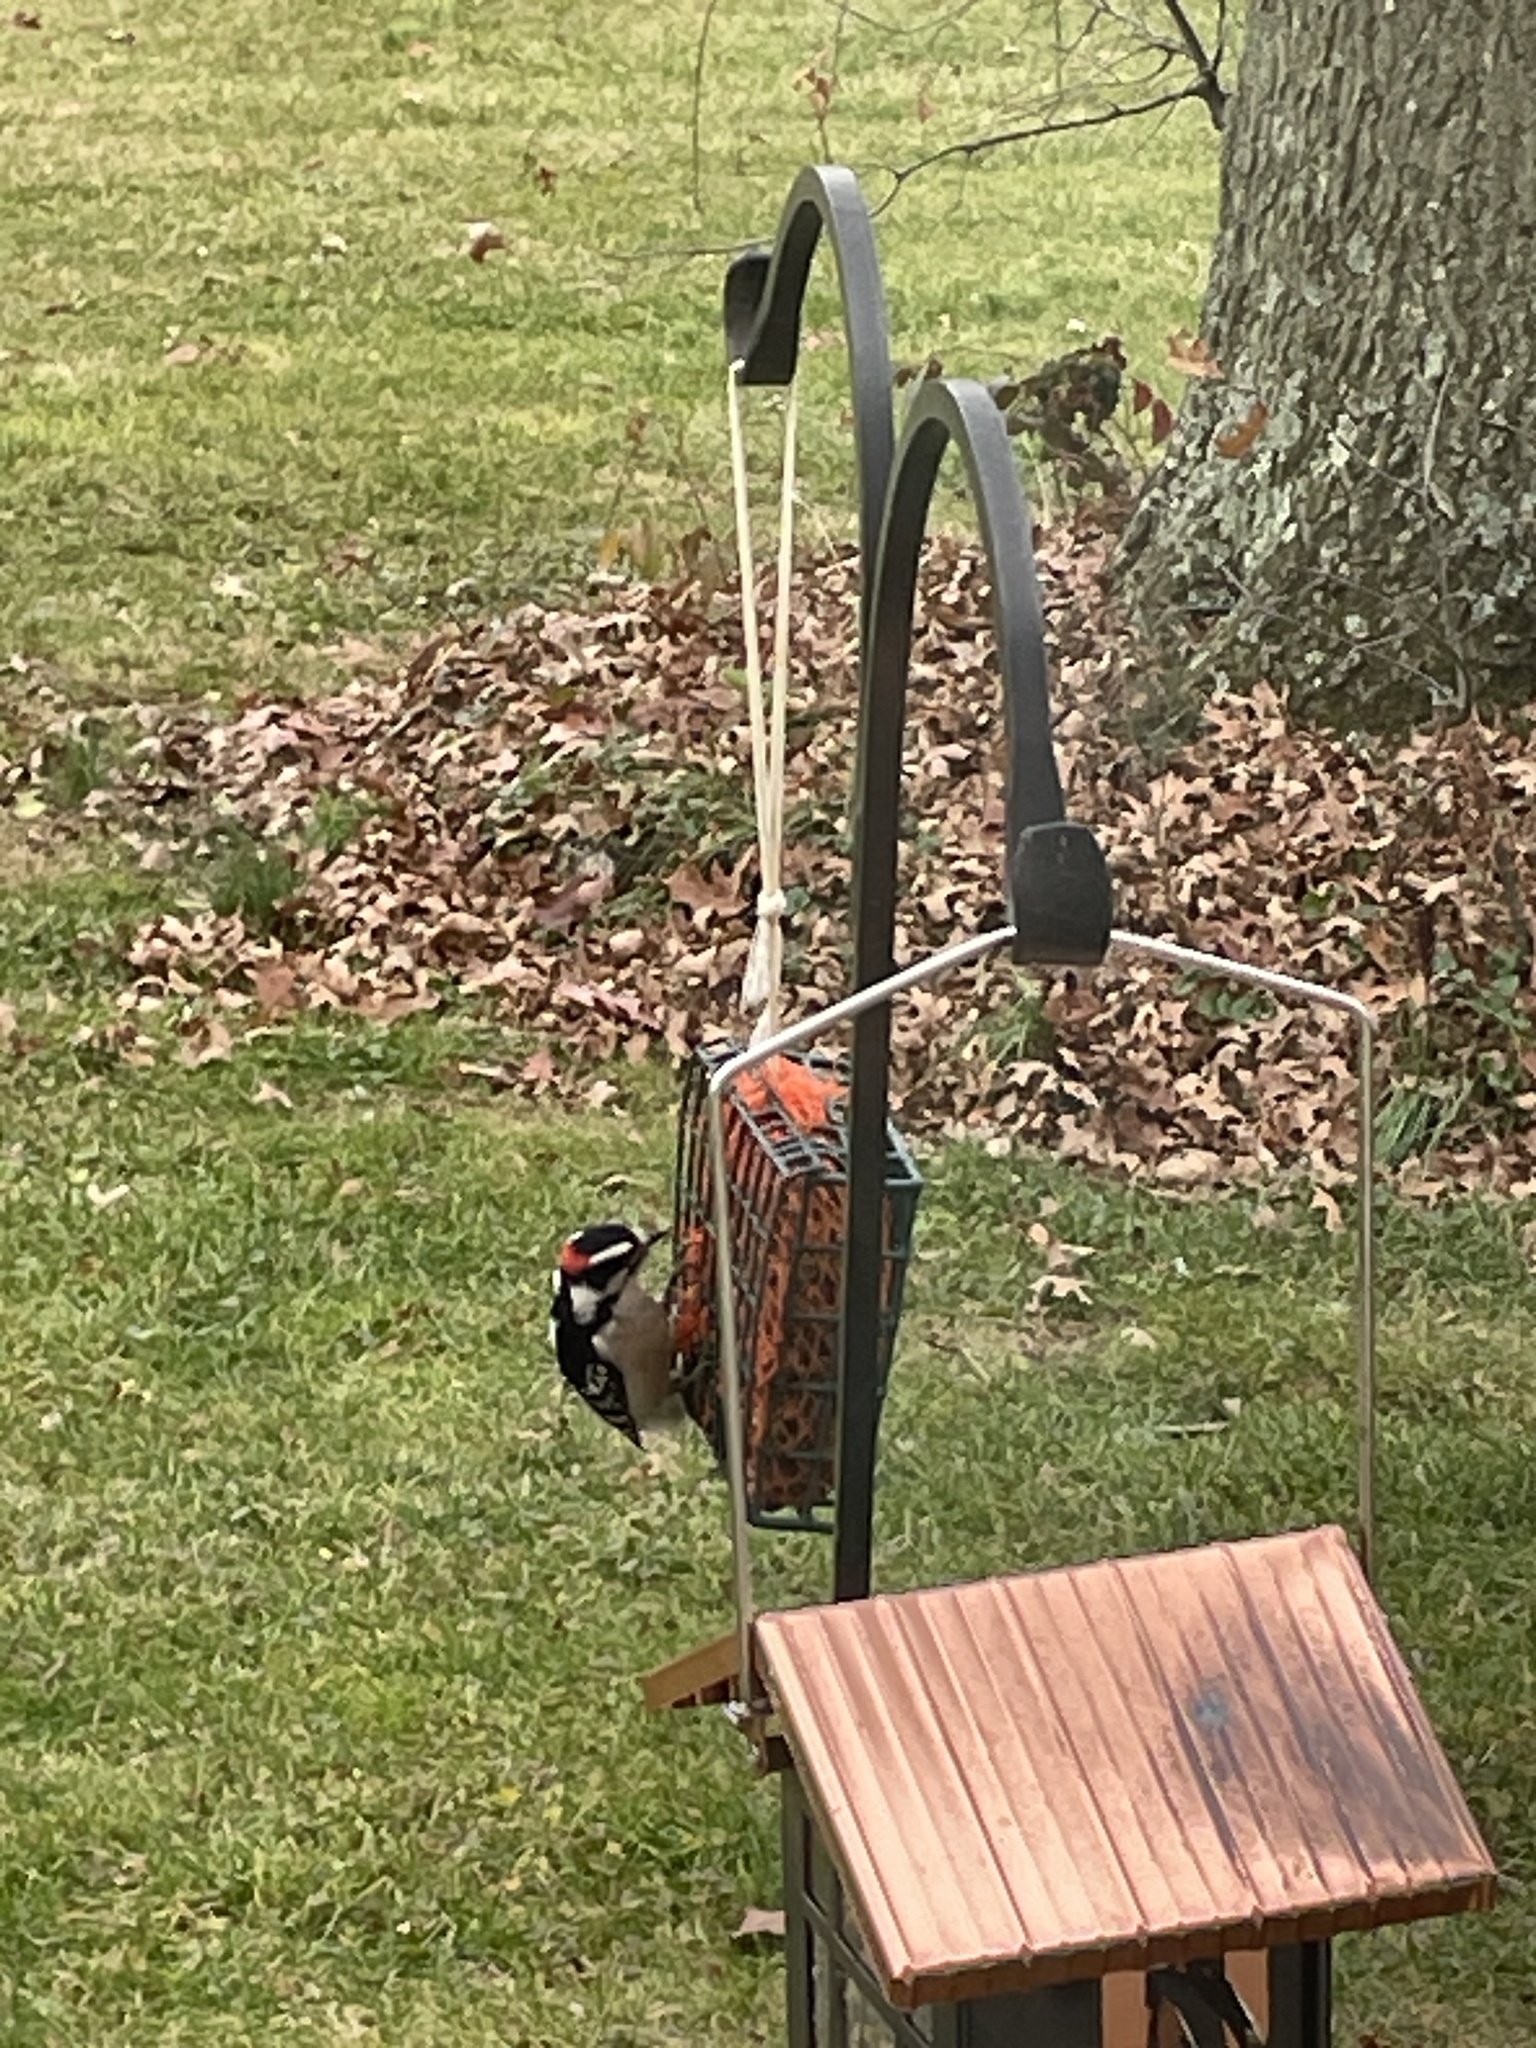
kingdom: Animalia
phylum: Chordata
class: Aves
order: Piciformes
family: Picidae
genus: Dryobates
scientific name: Dryobates pubescens
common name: Downy woodpecker
